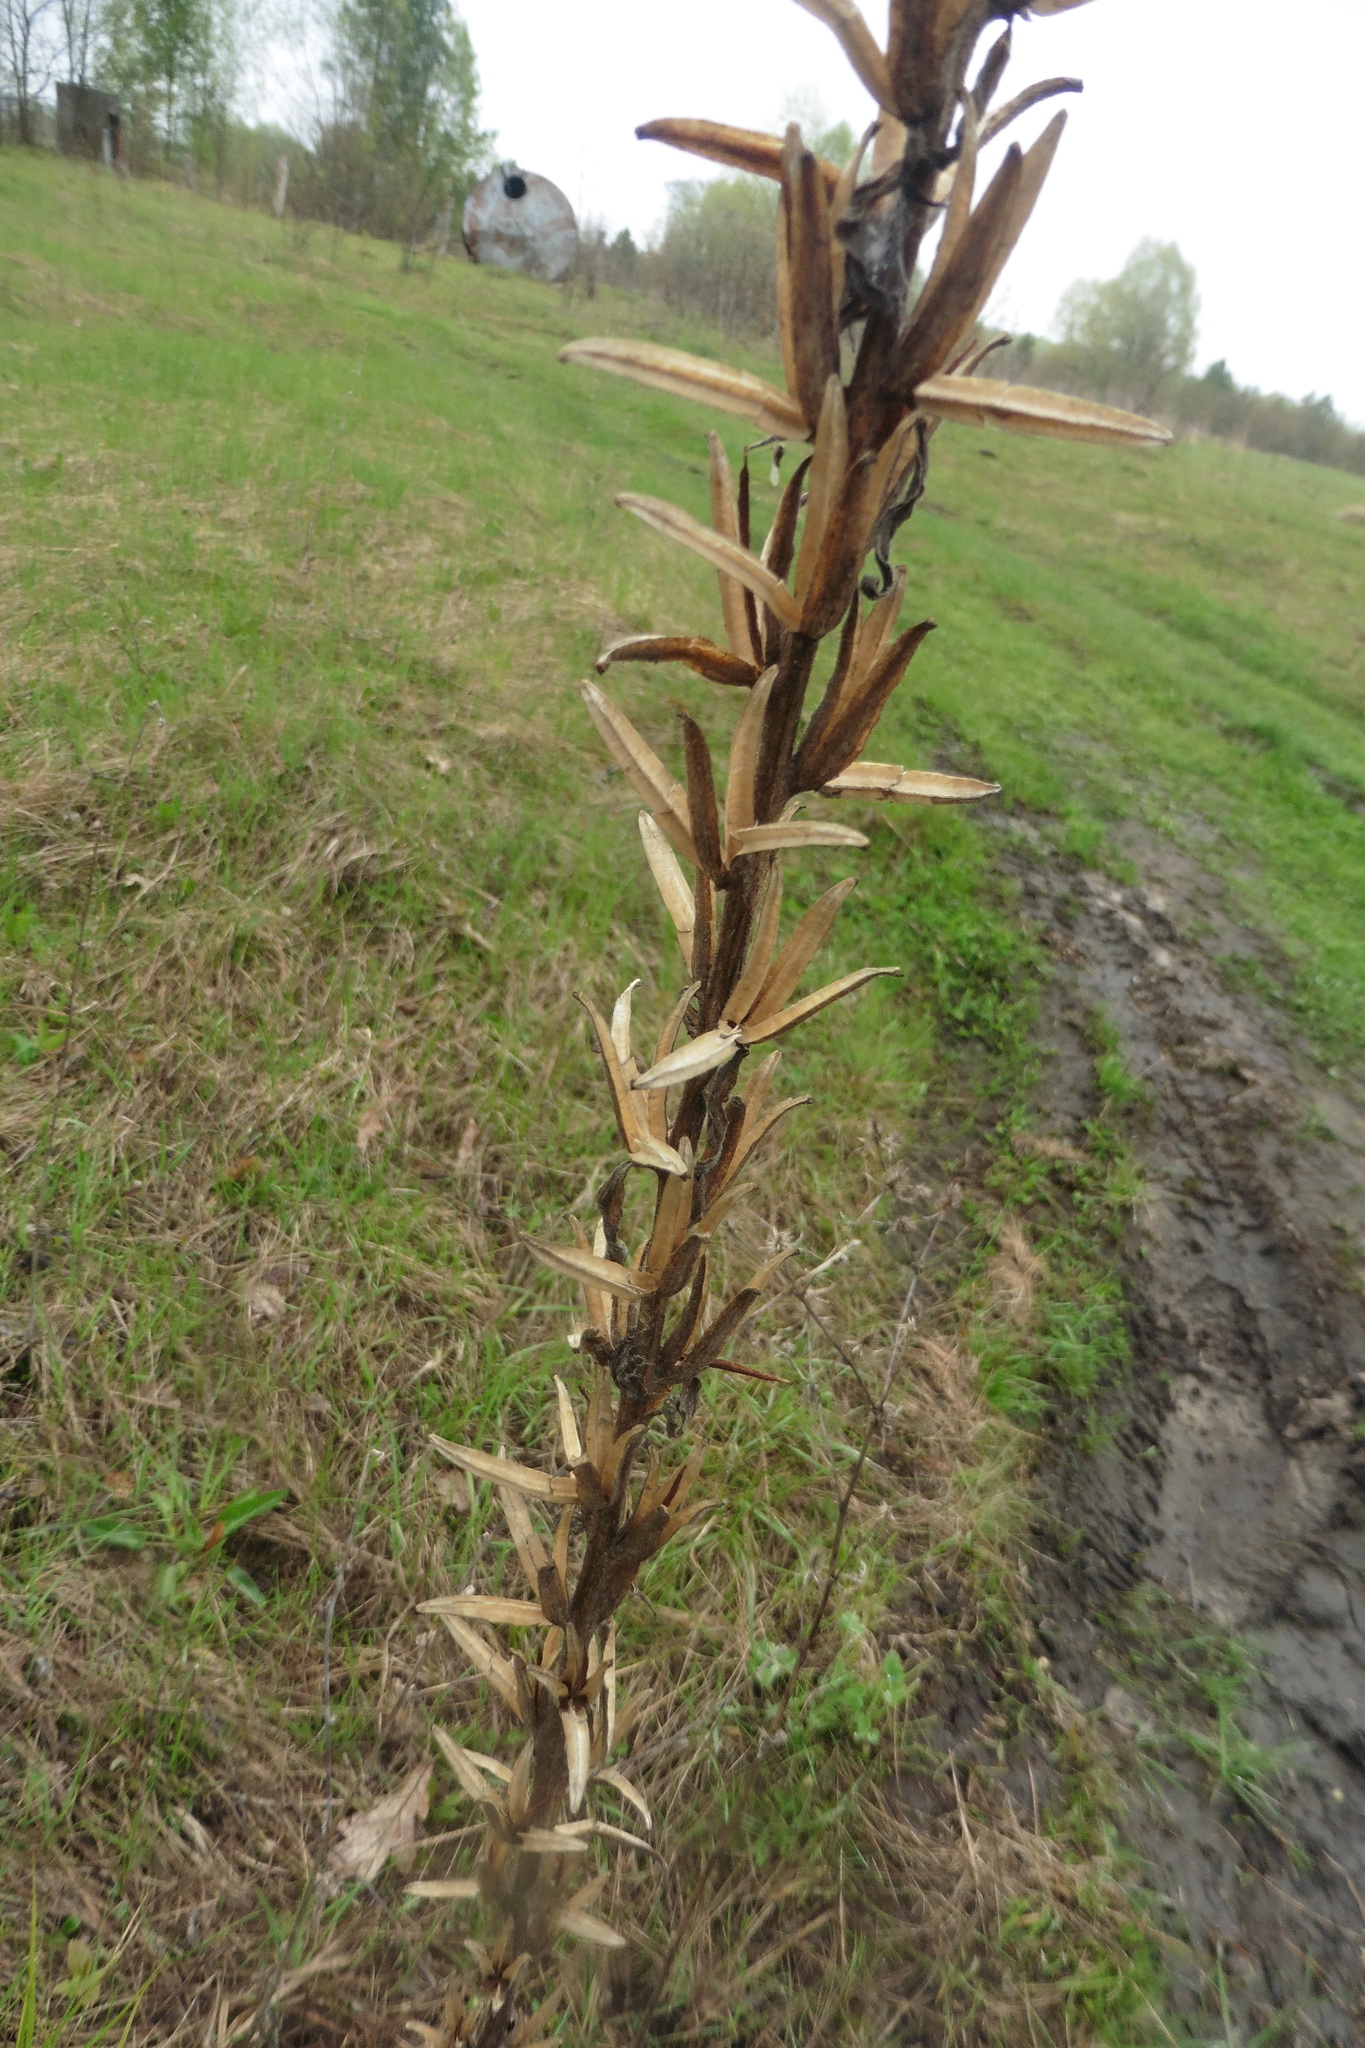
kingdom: Plantae
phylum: Tracheophyta
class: Magnoliopsida
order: Myrtales
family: Onagraceae
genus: Oenothera
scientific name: Oenothera
